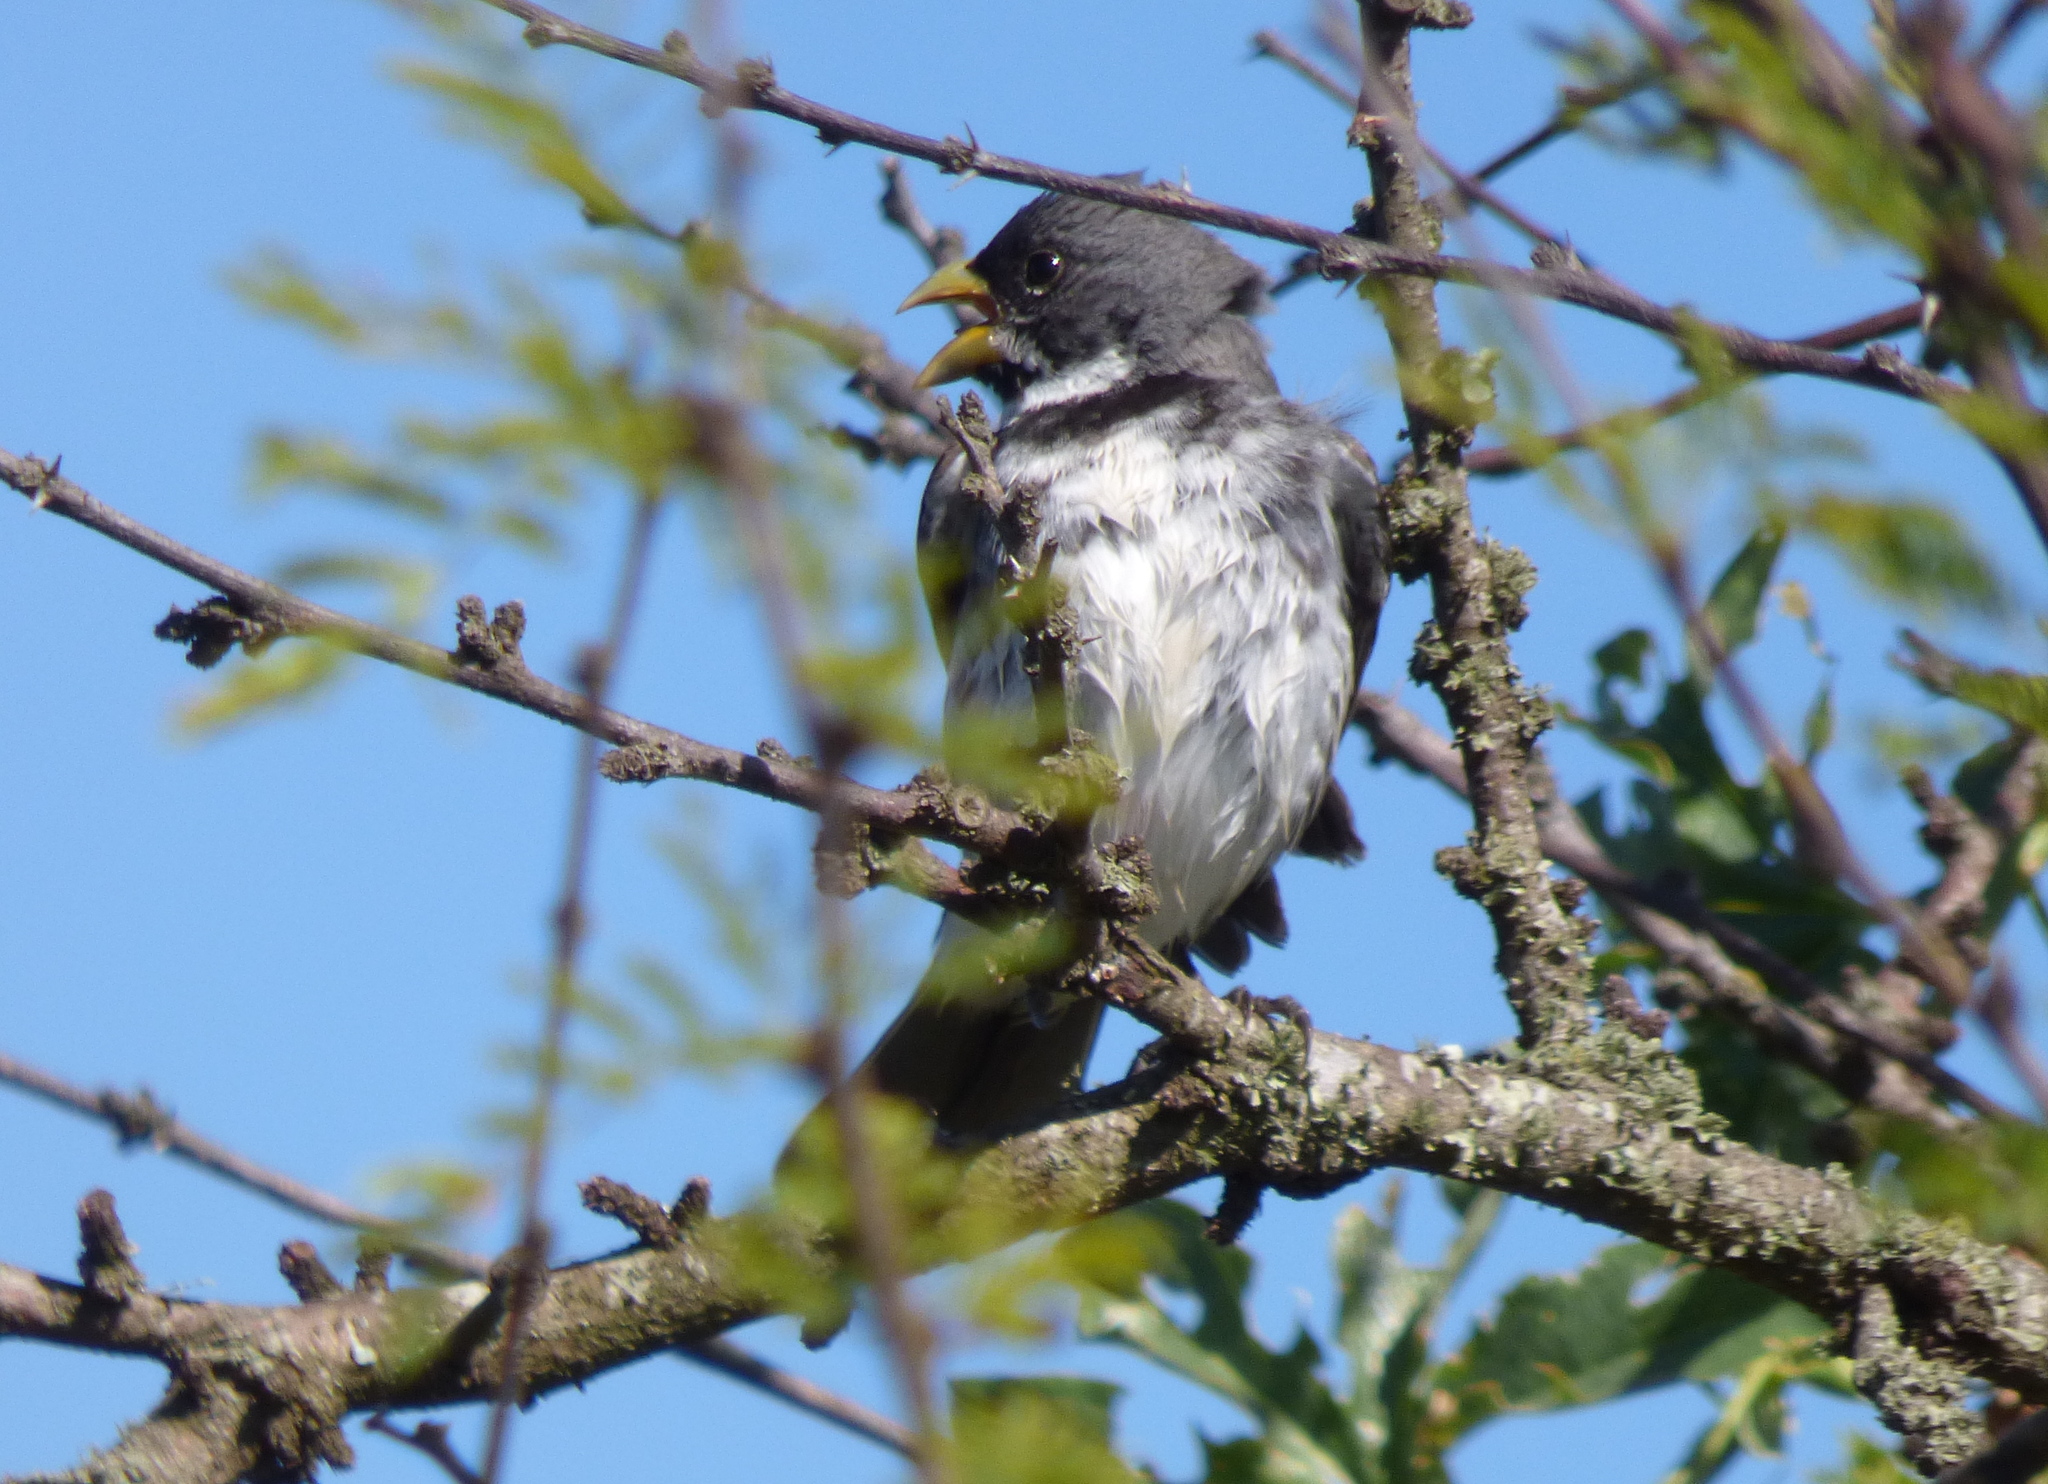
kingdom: Animalia
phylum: Chordata
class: Aves
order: Passeriformes
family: Thraupidae
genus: Sporophila
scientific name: Sporophila caerulescens
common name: Double-collared seedeater
